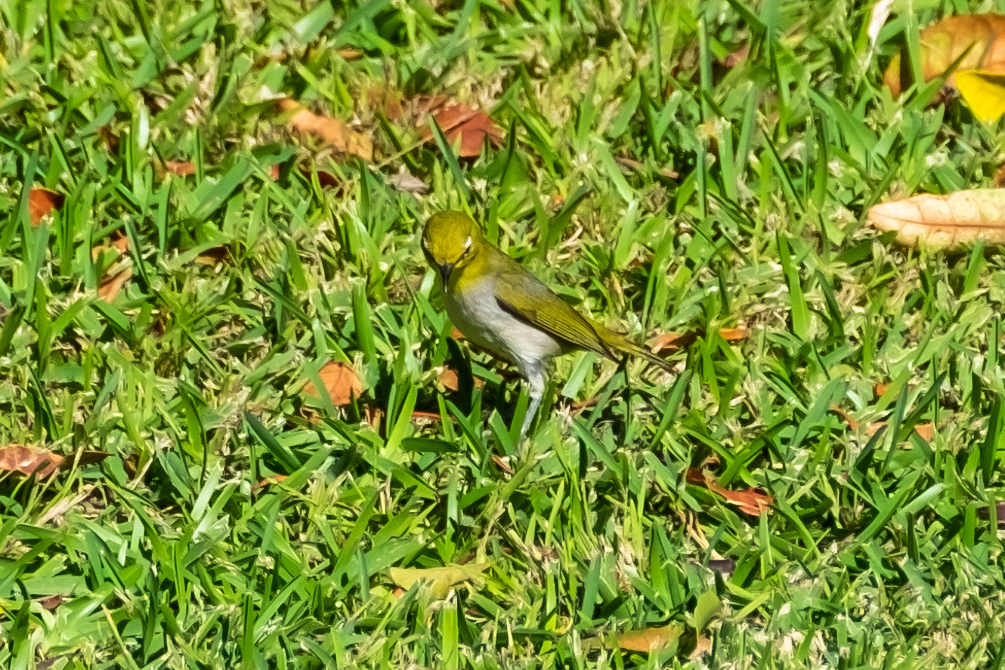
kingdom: Animalia
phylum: Chordata
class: Aves
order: Passeriformes
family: Zosteropidae
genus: Zosterops
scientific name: Zosterops simplex
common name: Swinhoe's white-eye
